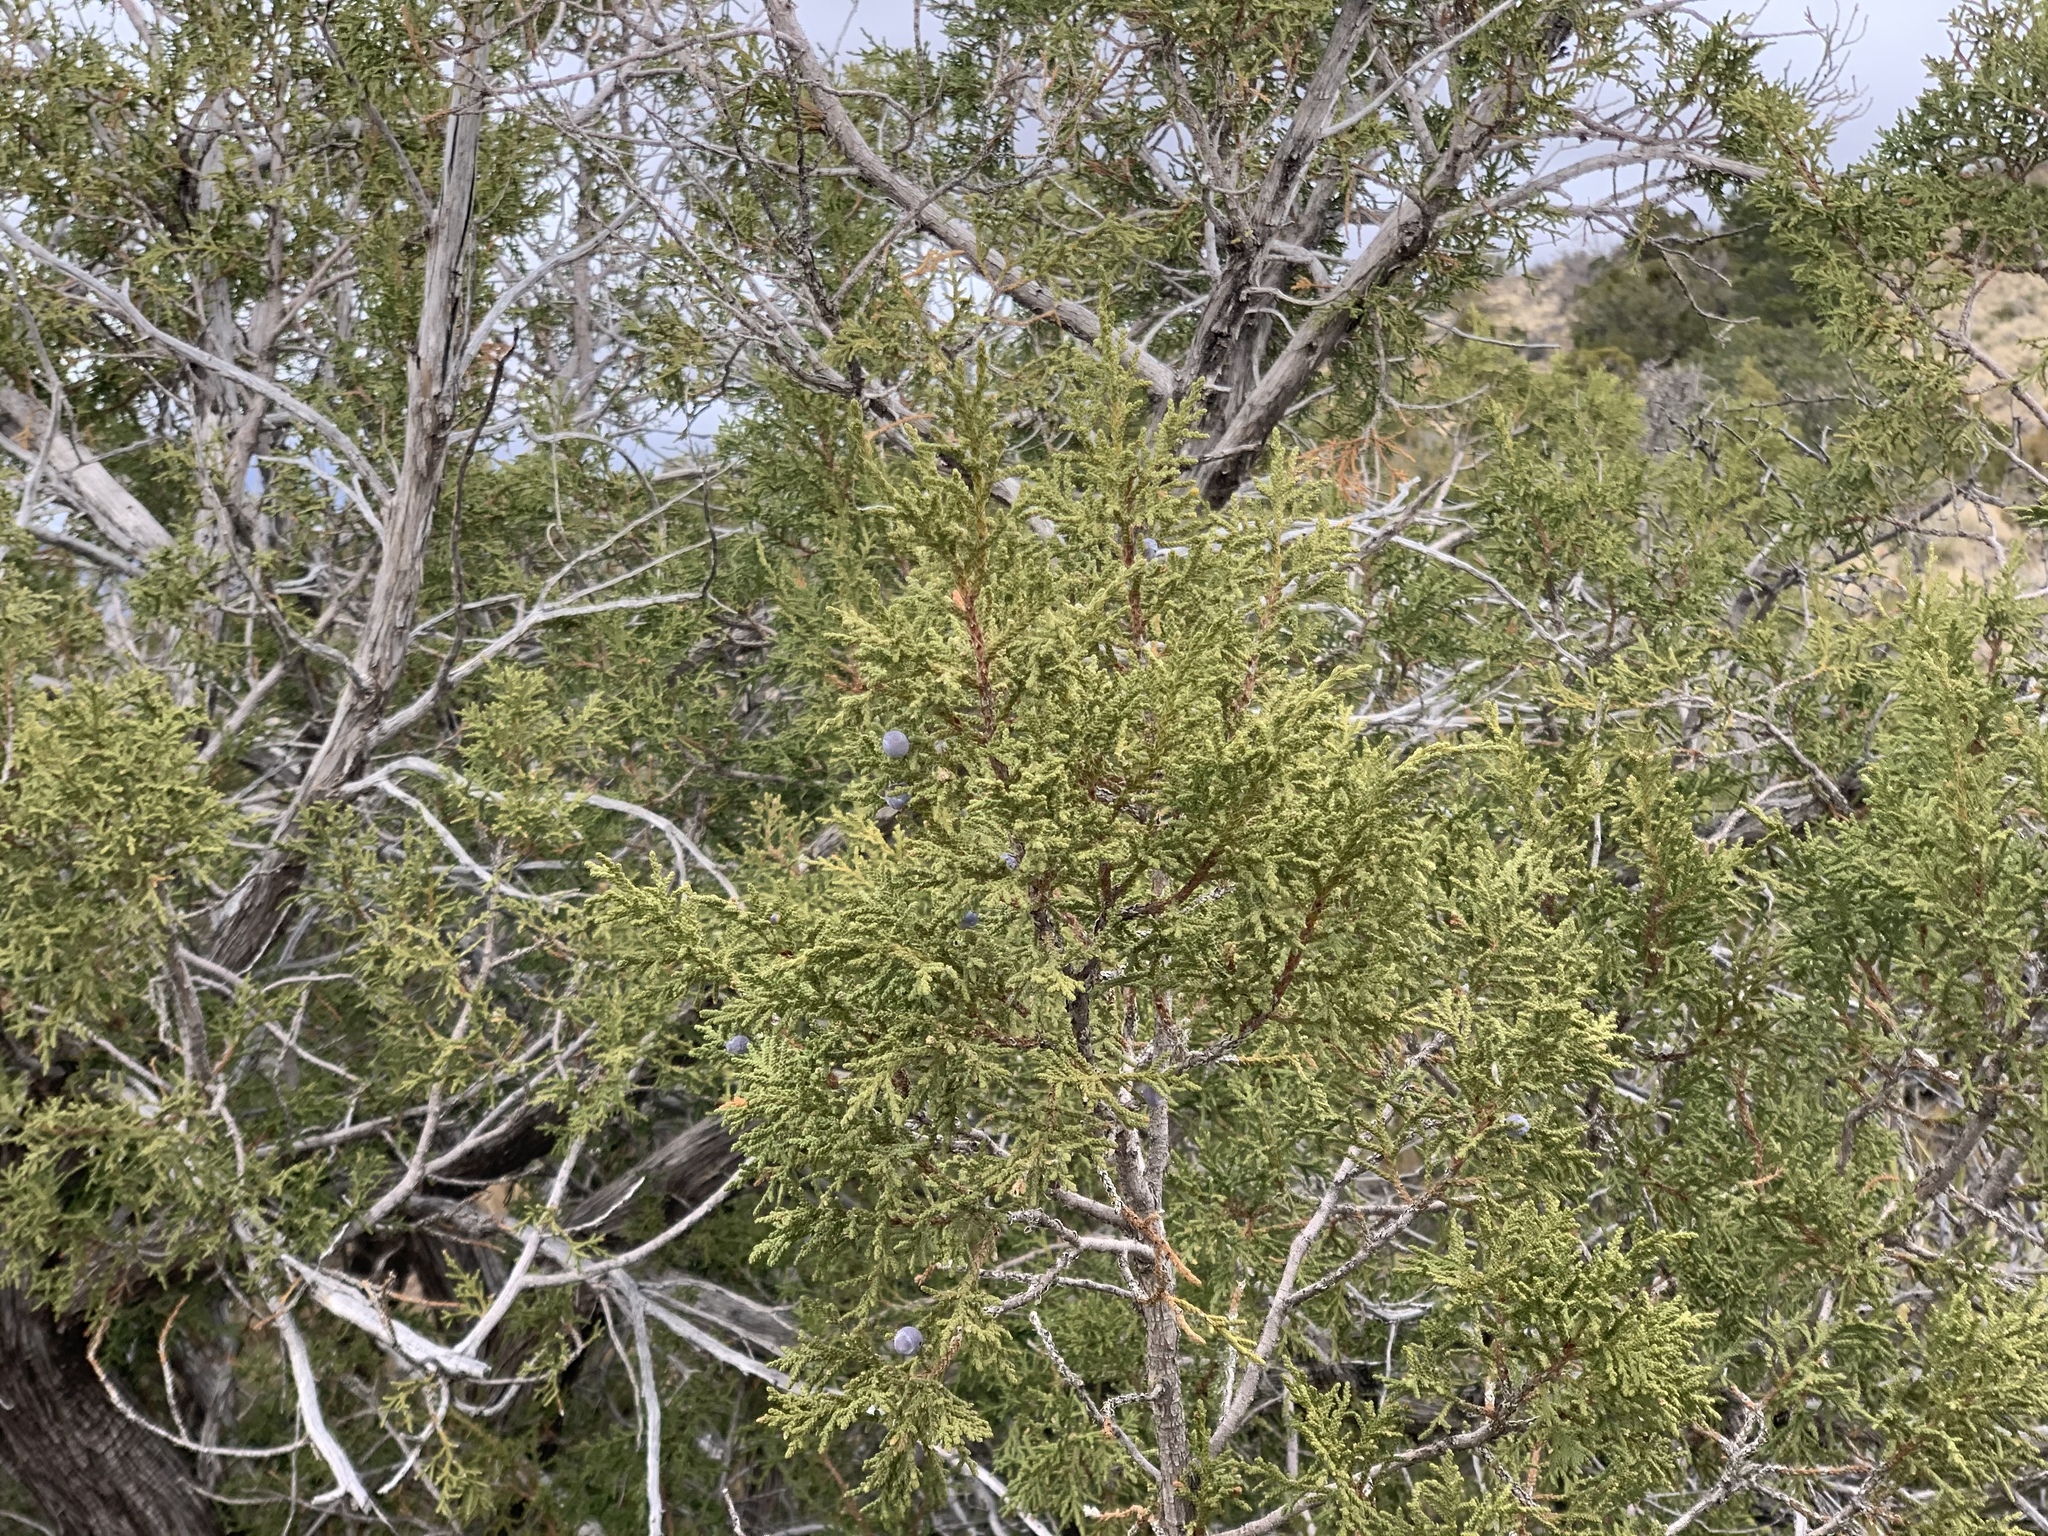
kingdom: Plantae
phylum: Tracheophyta
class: Pinopsida
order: Pinales
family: Cupressaceae
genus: Juniperus
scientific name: Juniperus monosperma
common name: One-seed juniper
